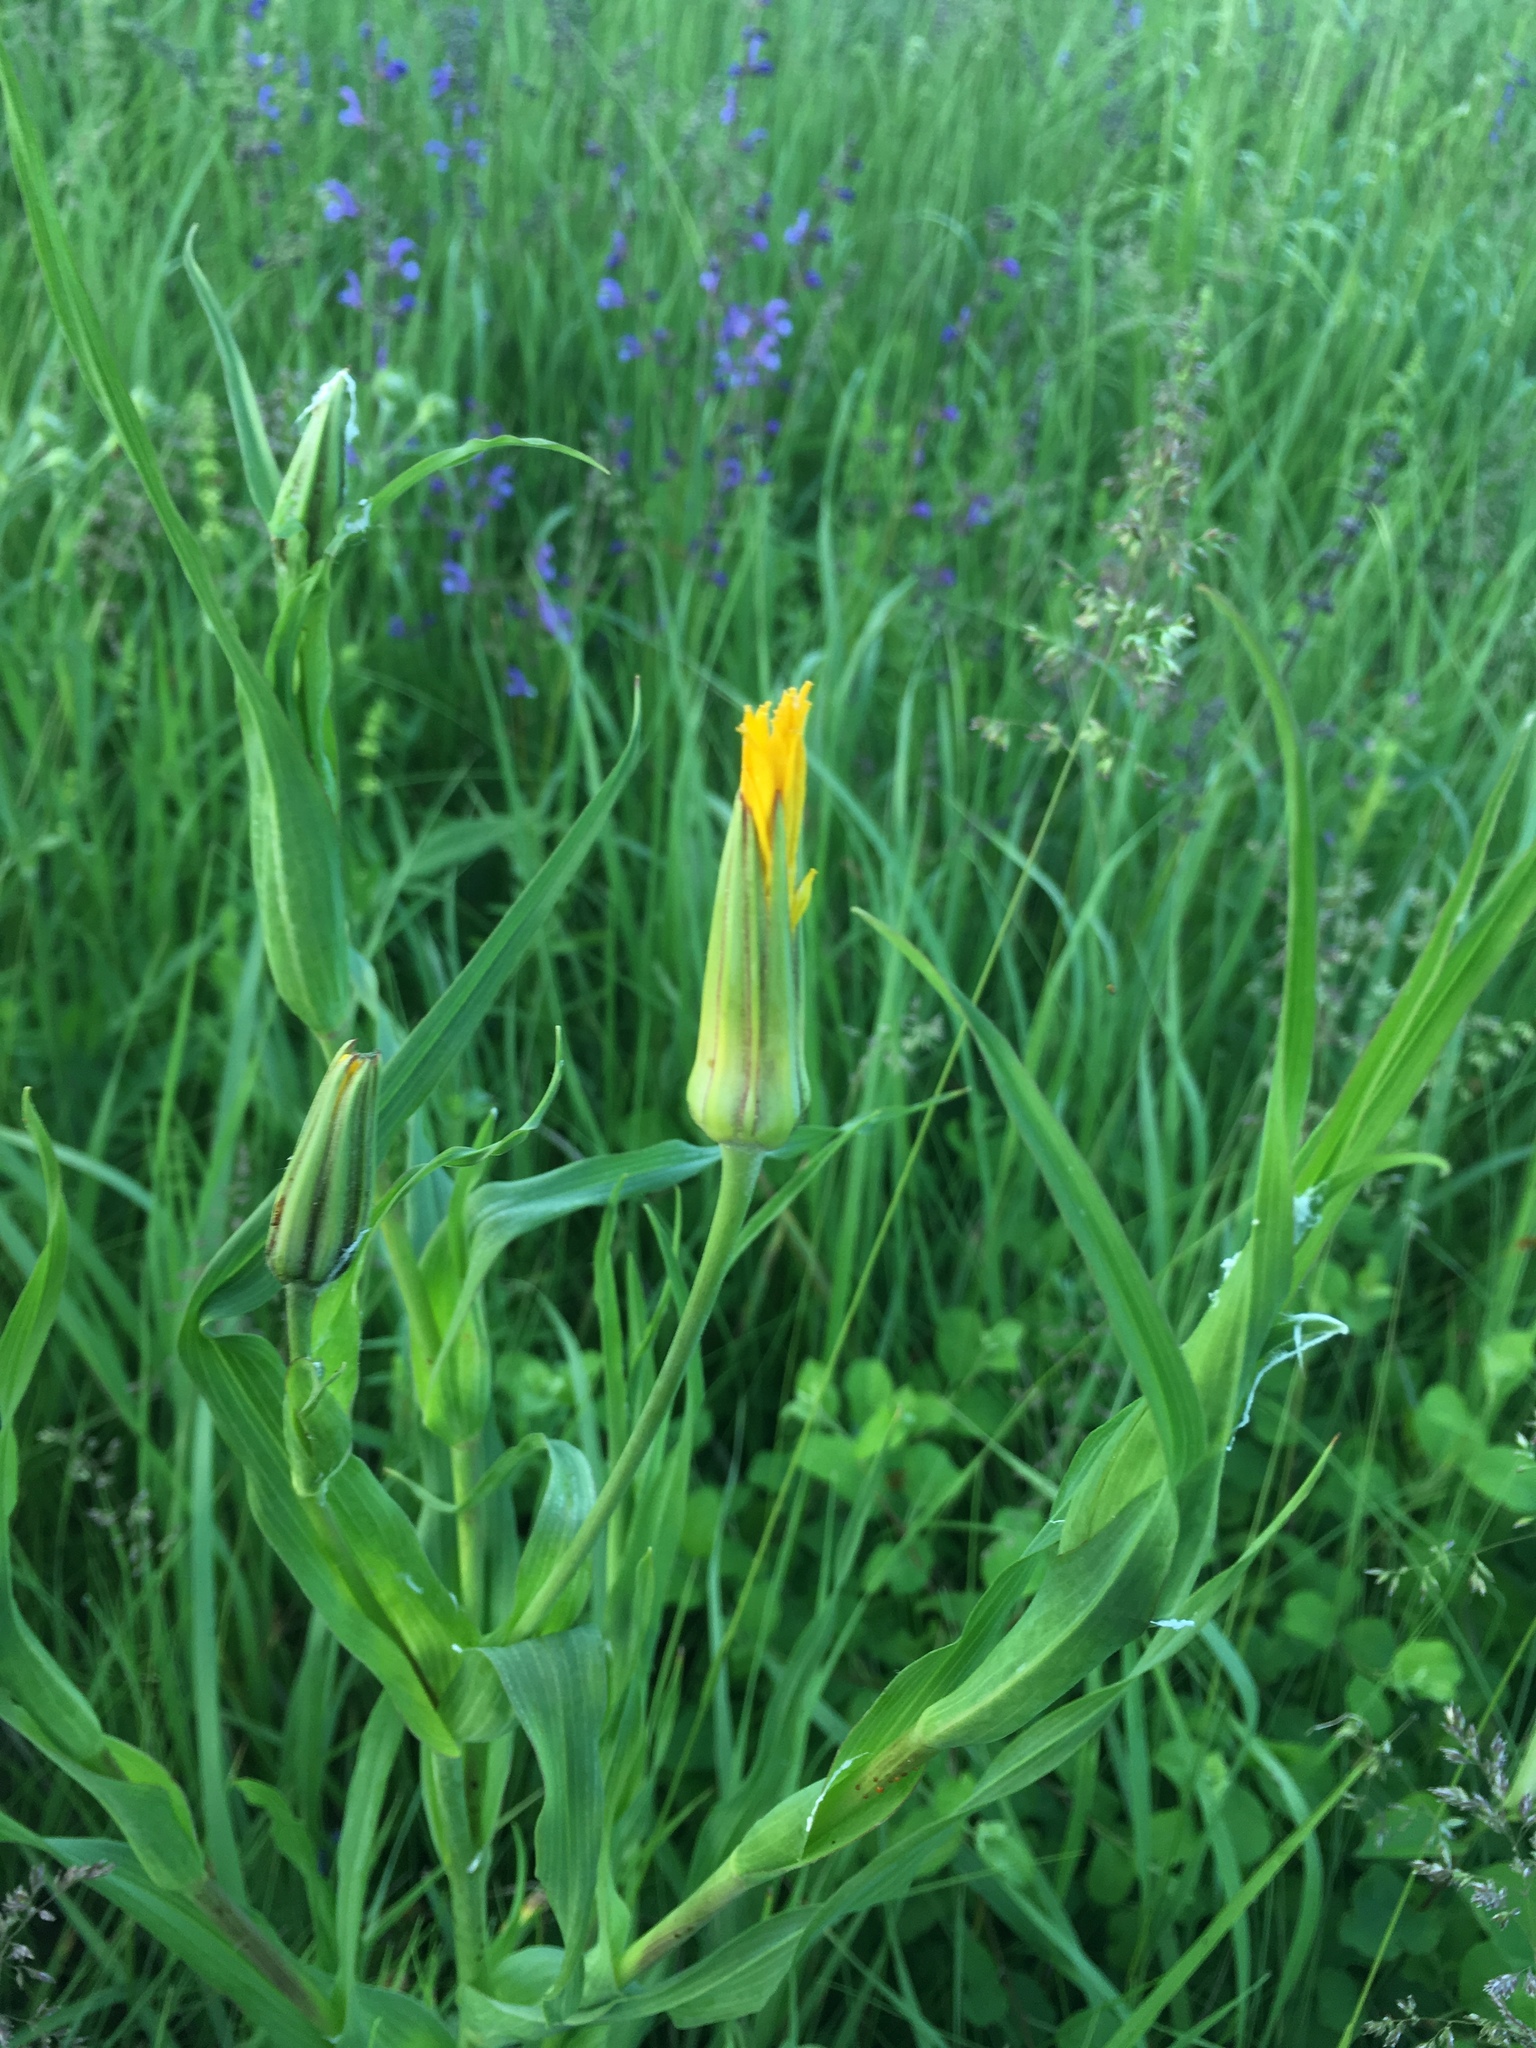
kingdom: Plantae
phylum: Tracheophyta
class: Magnoliopsida
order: Asterales
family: Asteraceae
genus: Tragopogon
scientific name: Tragopogon pratensis
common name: Goat's-beard
